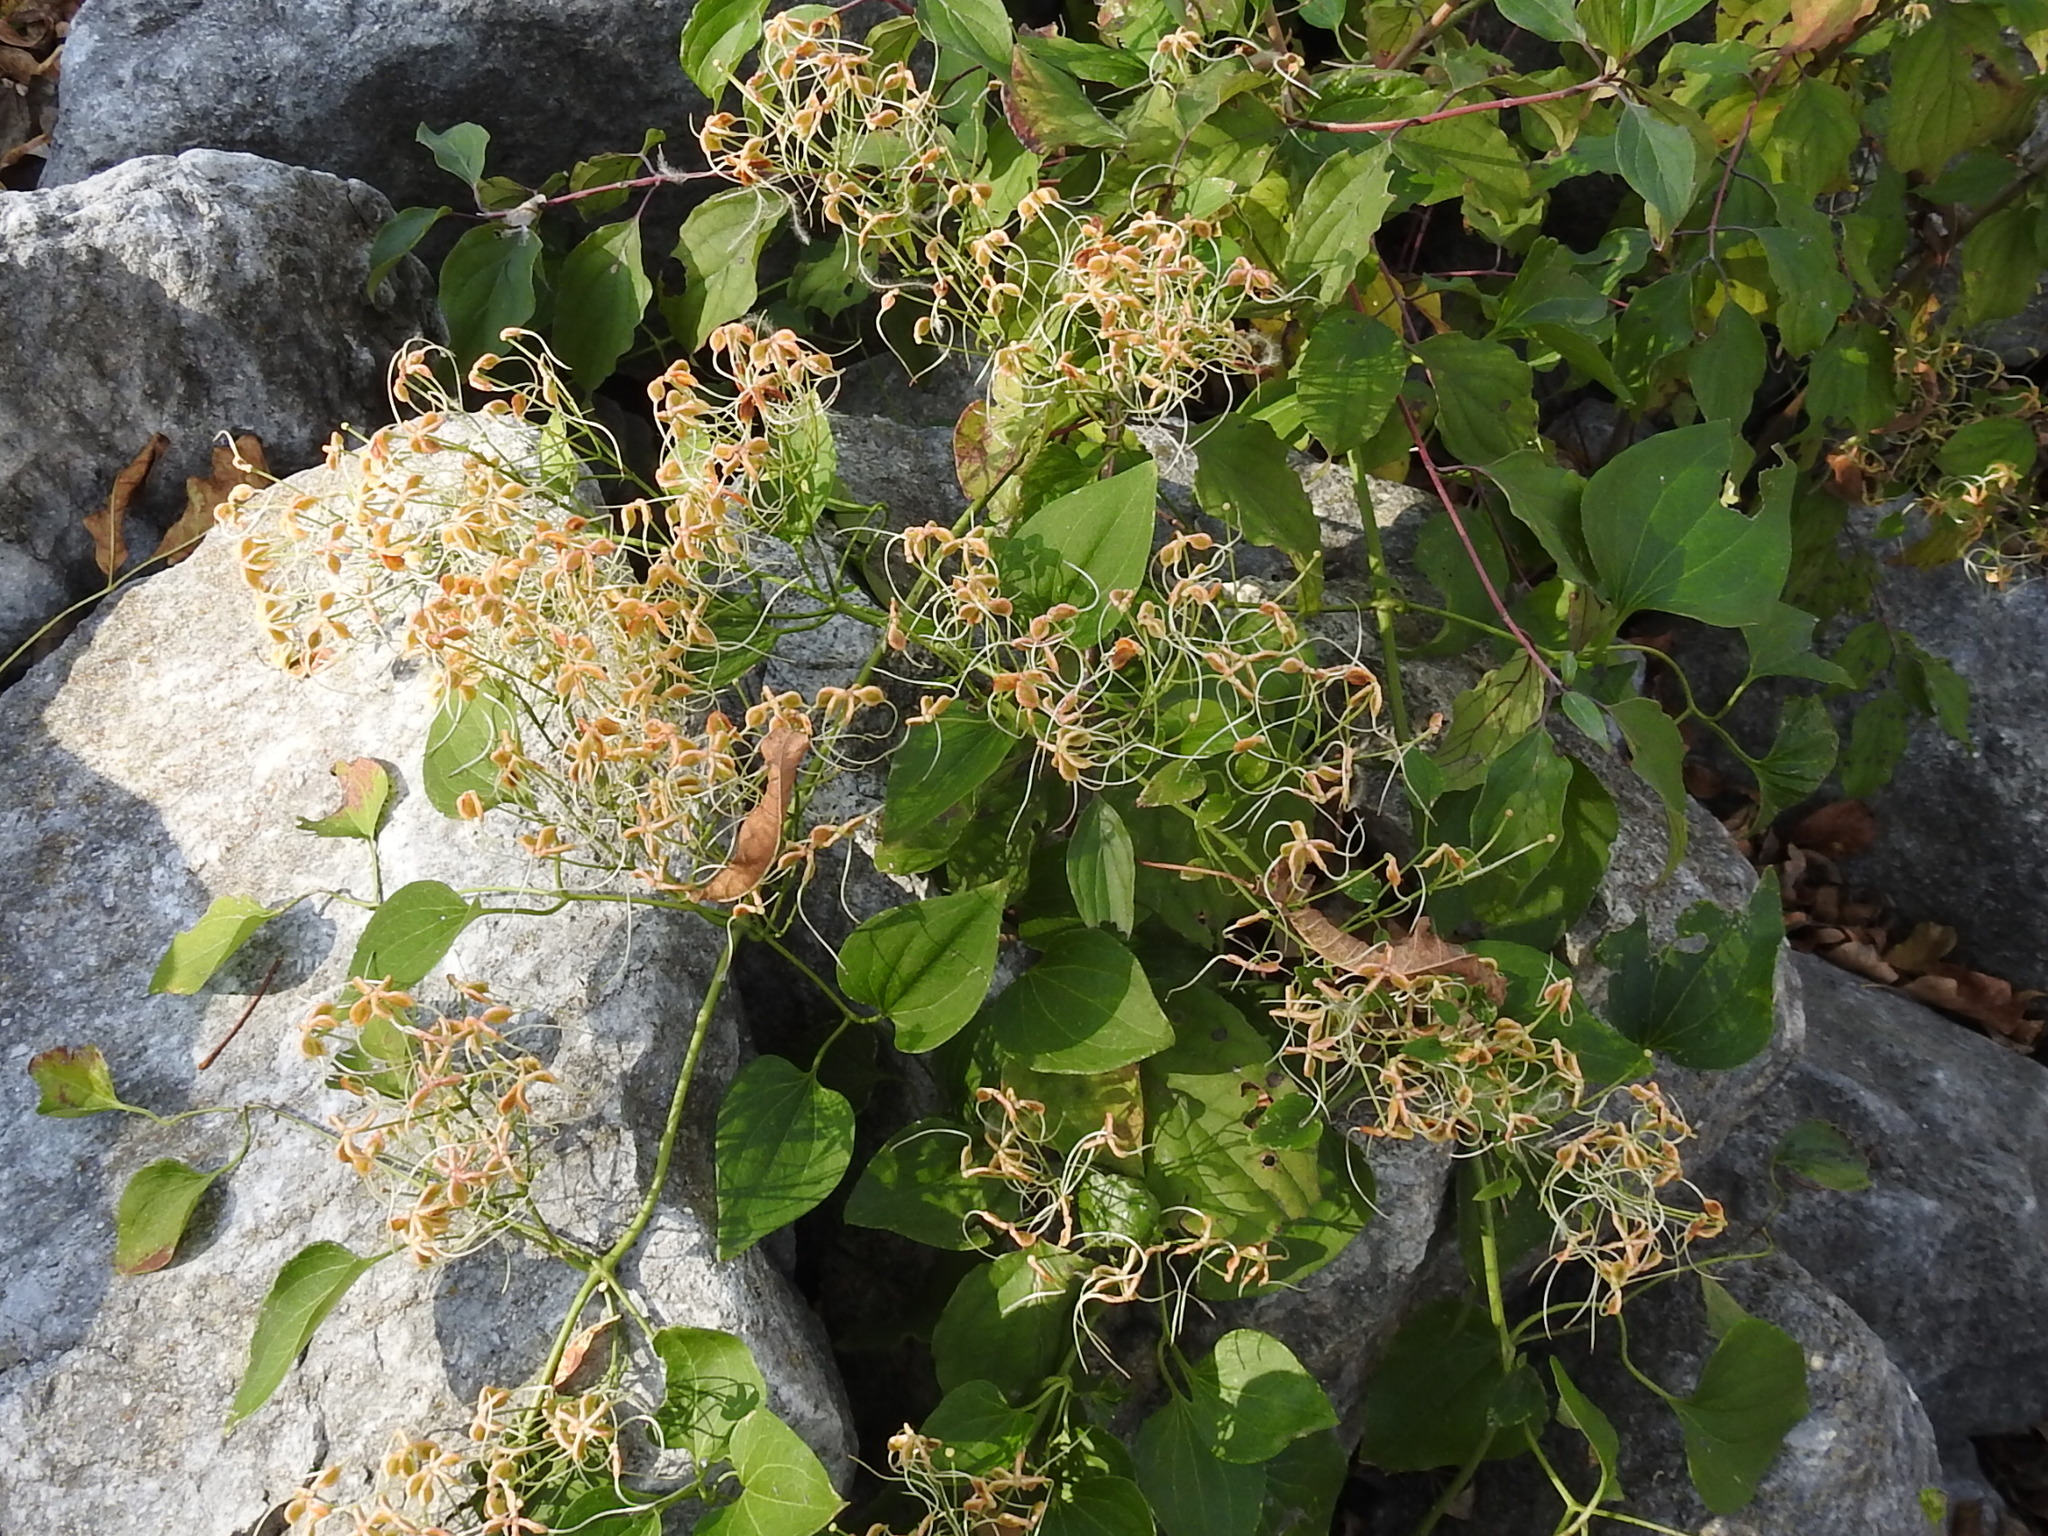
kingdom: Plantae
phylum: Tracheophyta
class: Magnoliopsida
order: Ranunculales
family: Ranunculaceae
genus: Clematis
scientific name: Clematis terniflora
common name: Sweet autumn clematis
